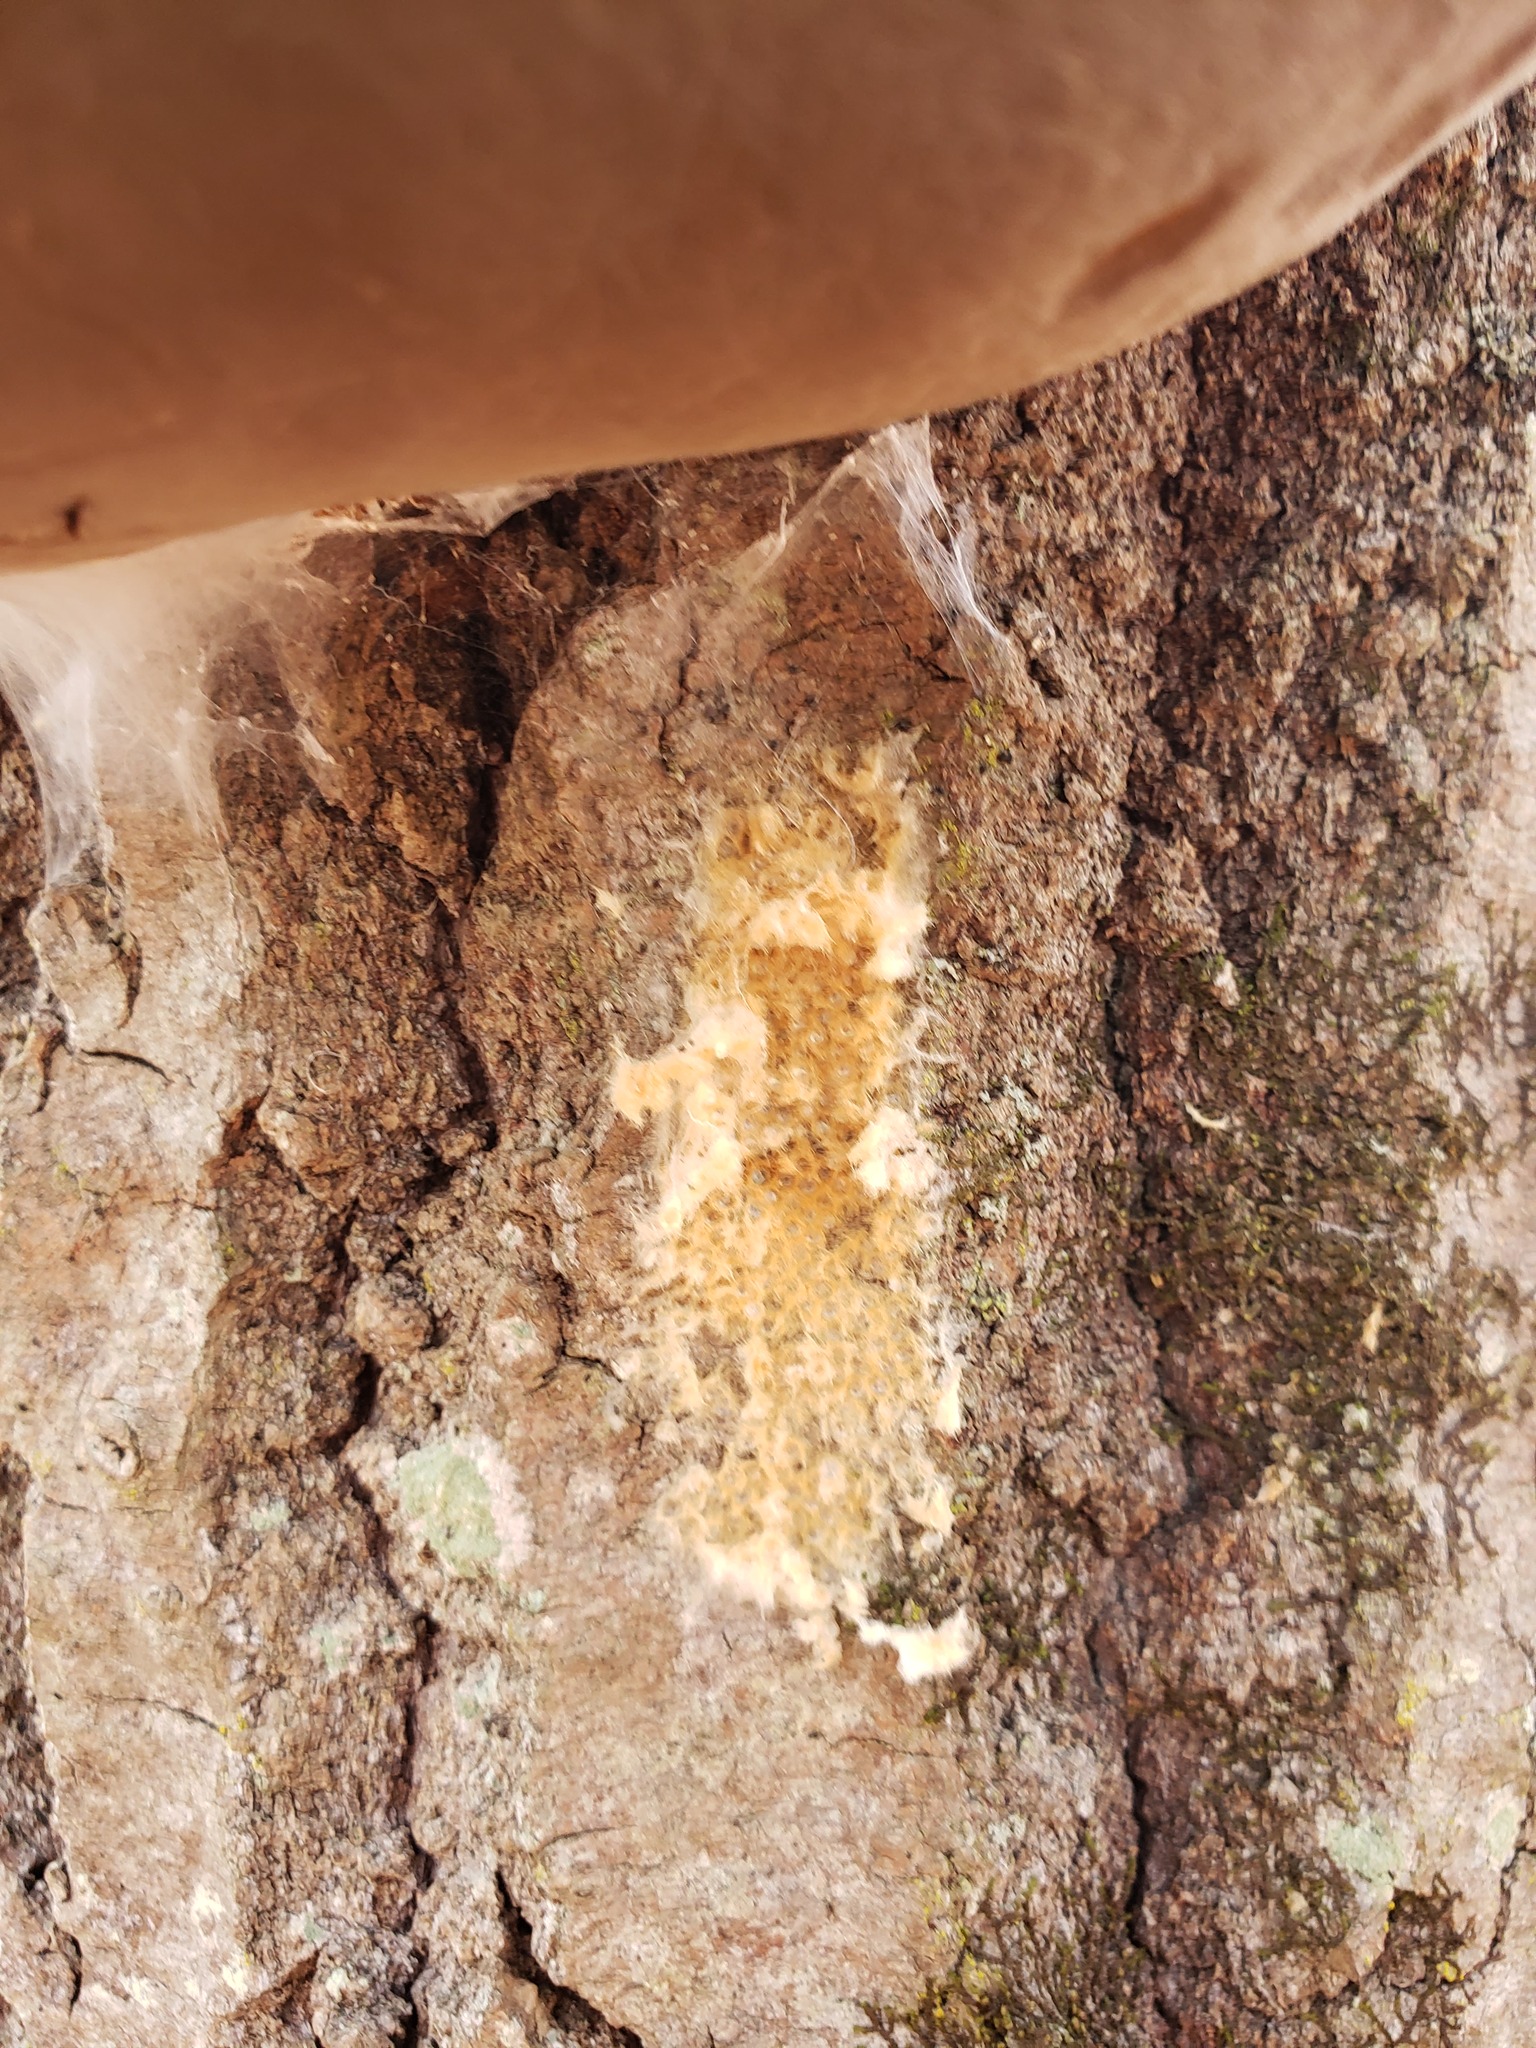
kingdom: Animalia
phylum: Arthropoda
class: Insecta
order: Lepidoptera
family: Erebidae
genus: Lymantria
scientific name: Lymantria dispar
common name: Gypsy moth
